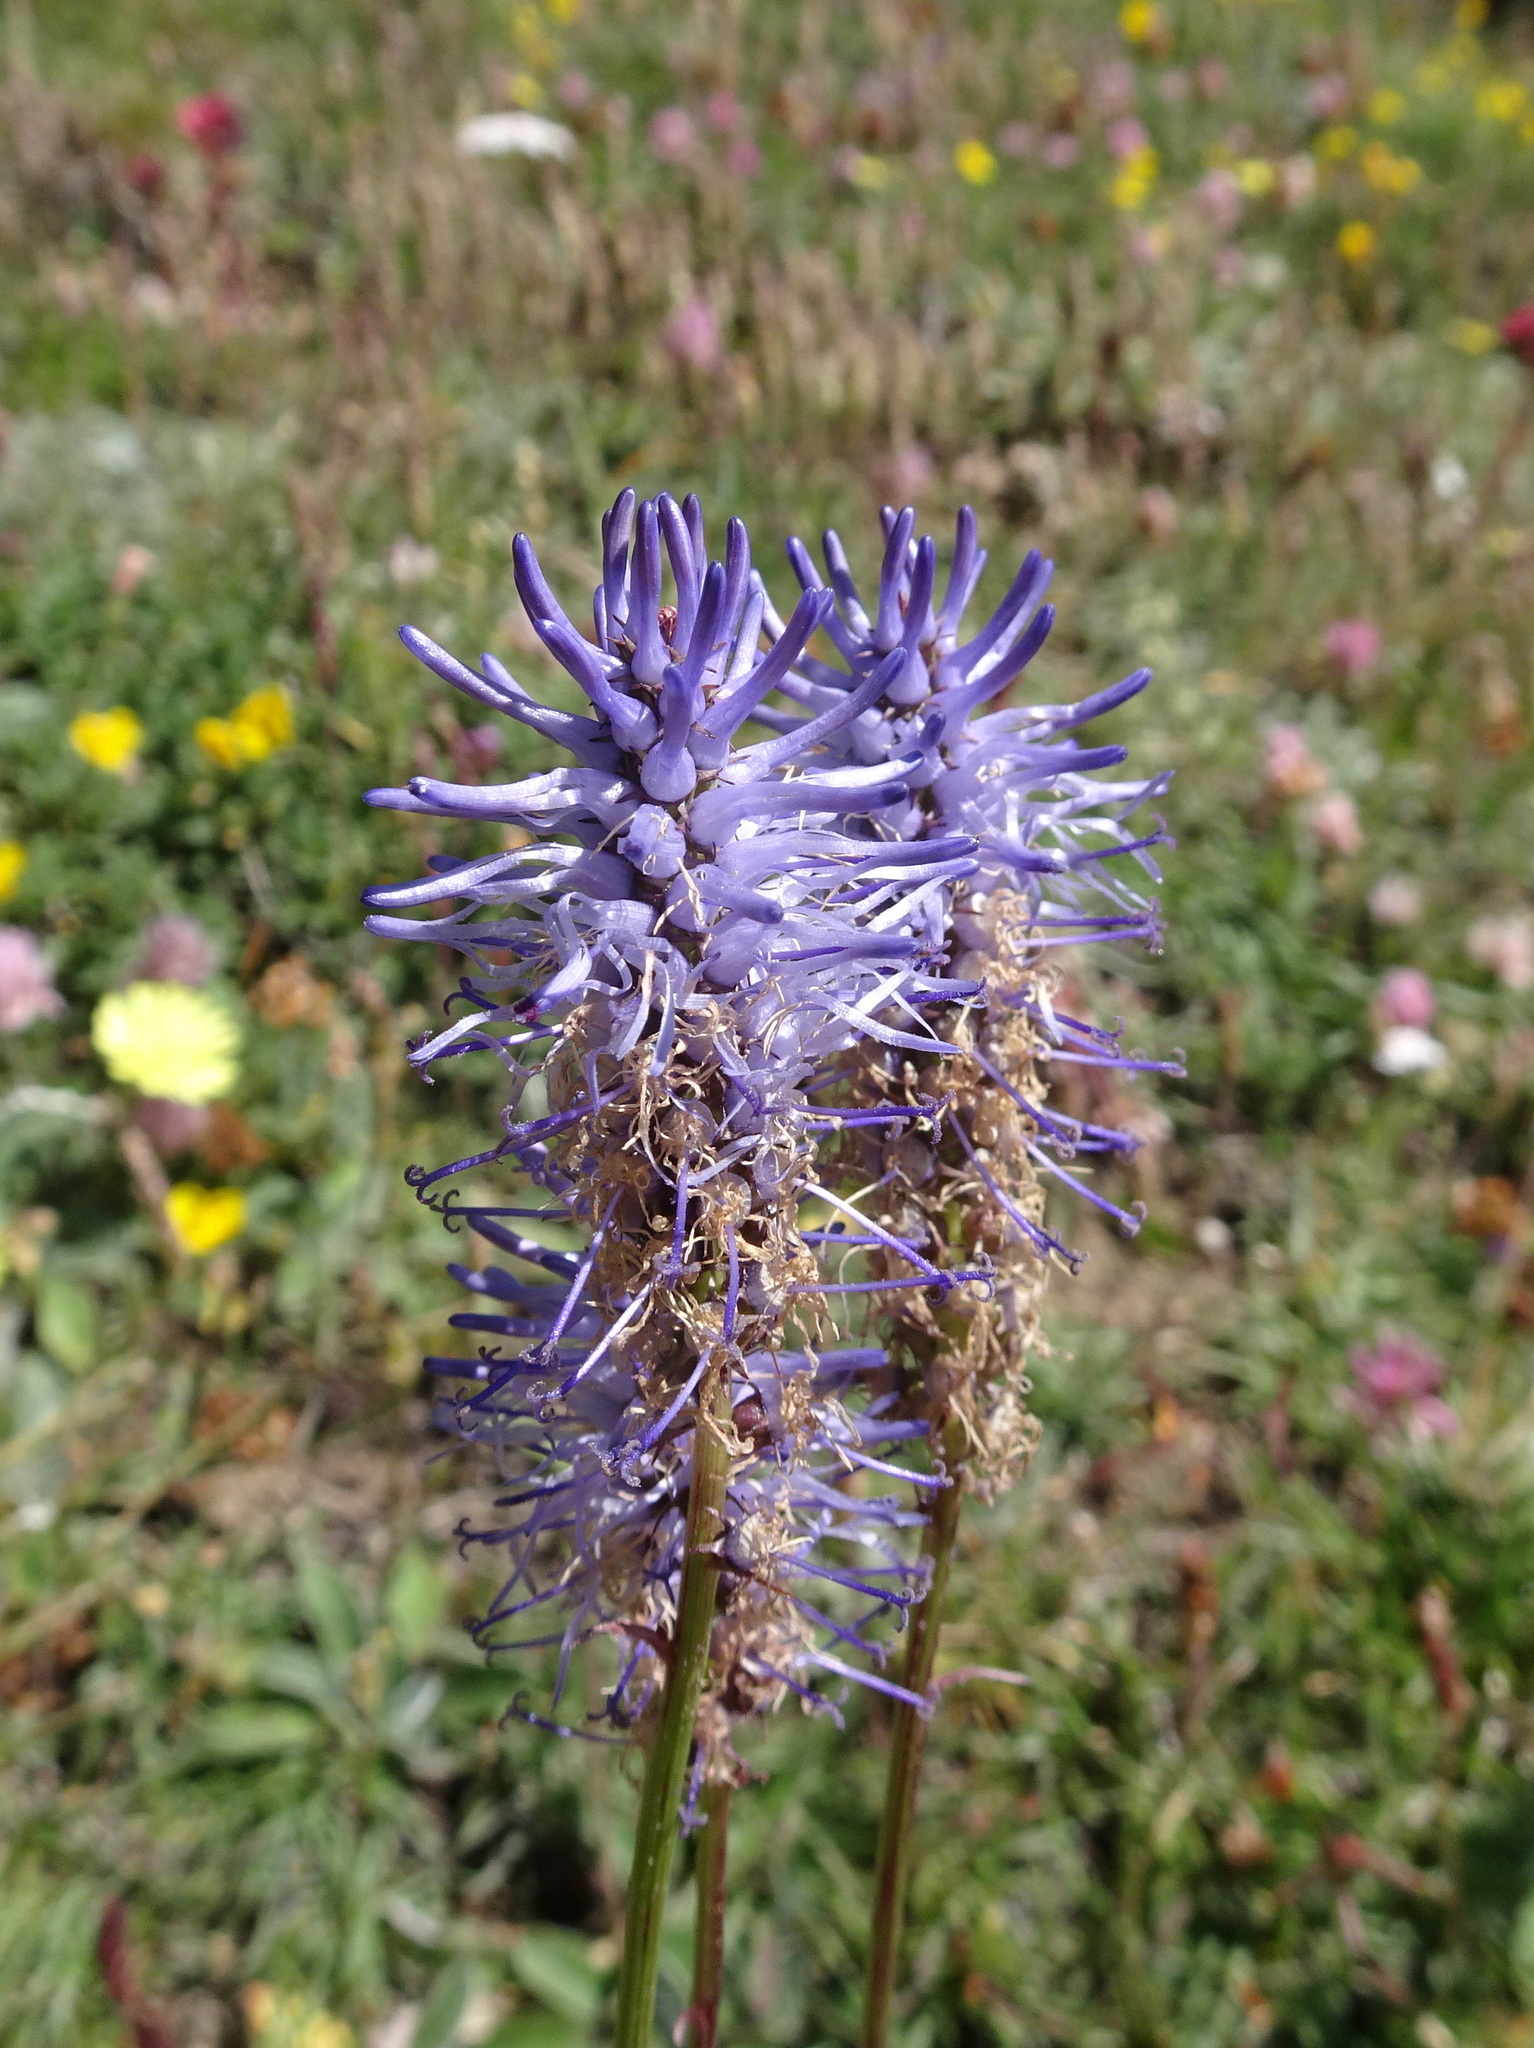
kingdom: Plantae
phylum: Tracheophyta
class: Magnoliopsida
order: Asterales
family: Campanulaceae
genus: Phyteuma
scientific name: Phyteuma betonicifolium
